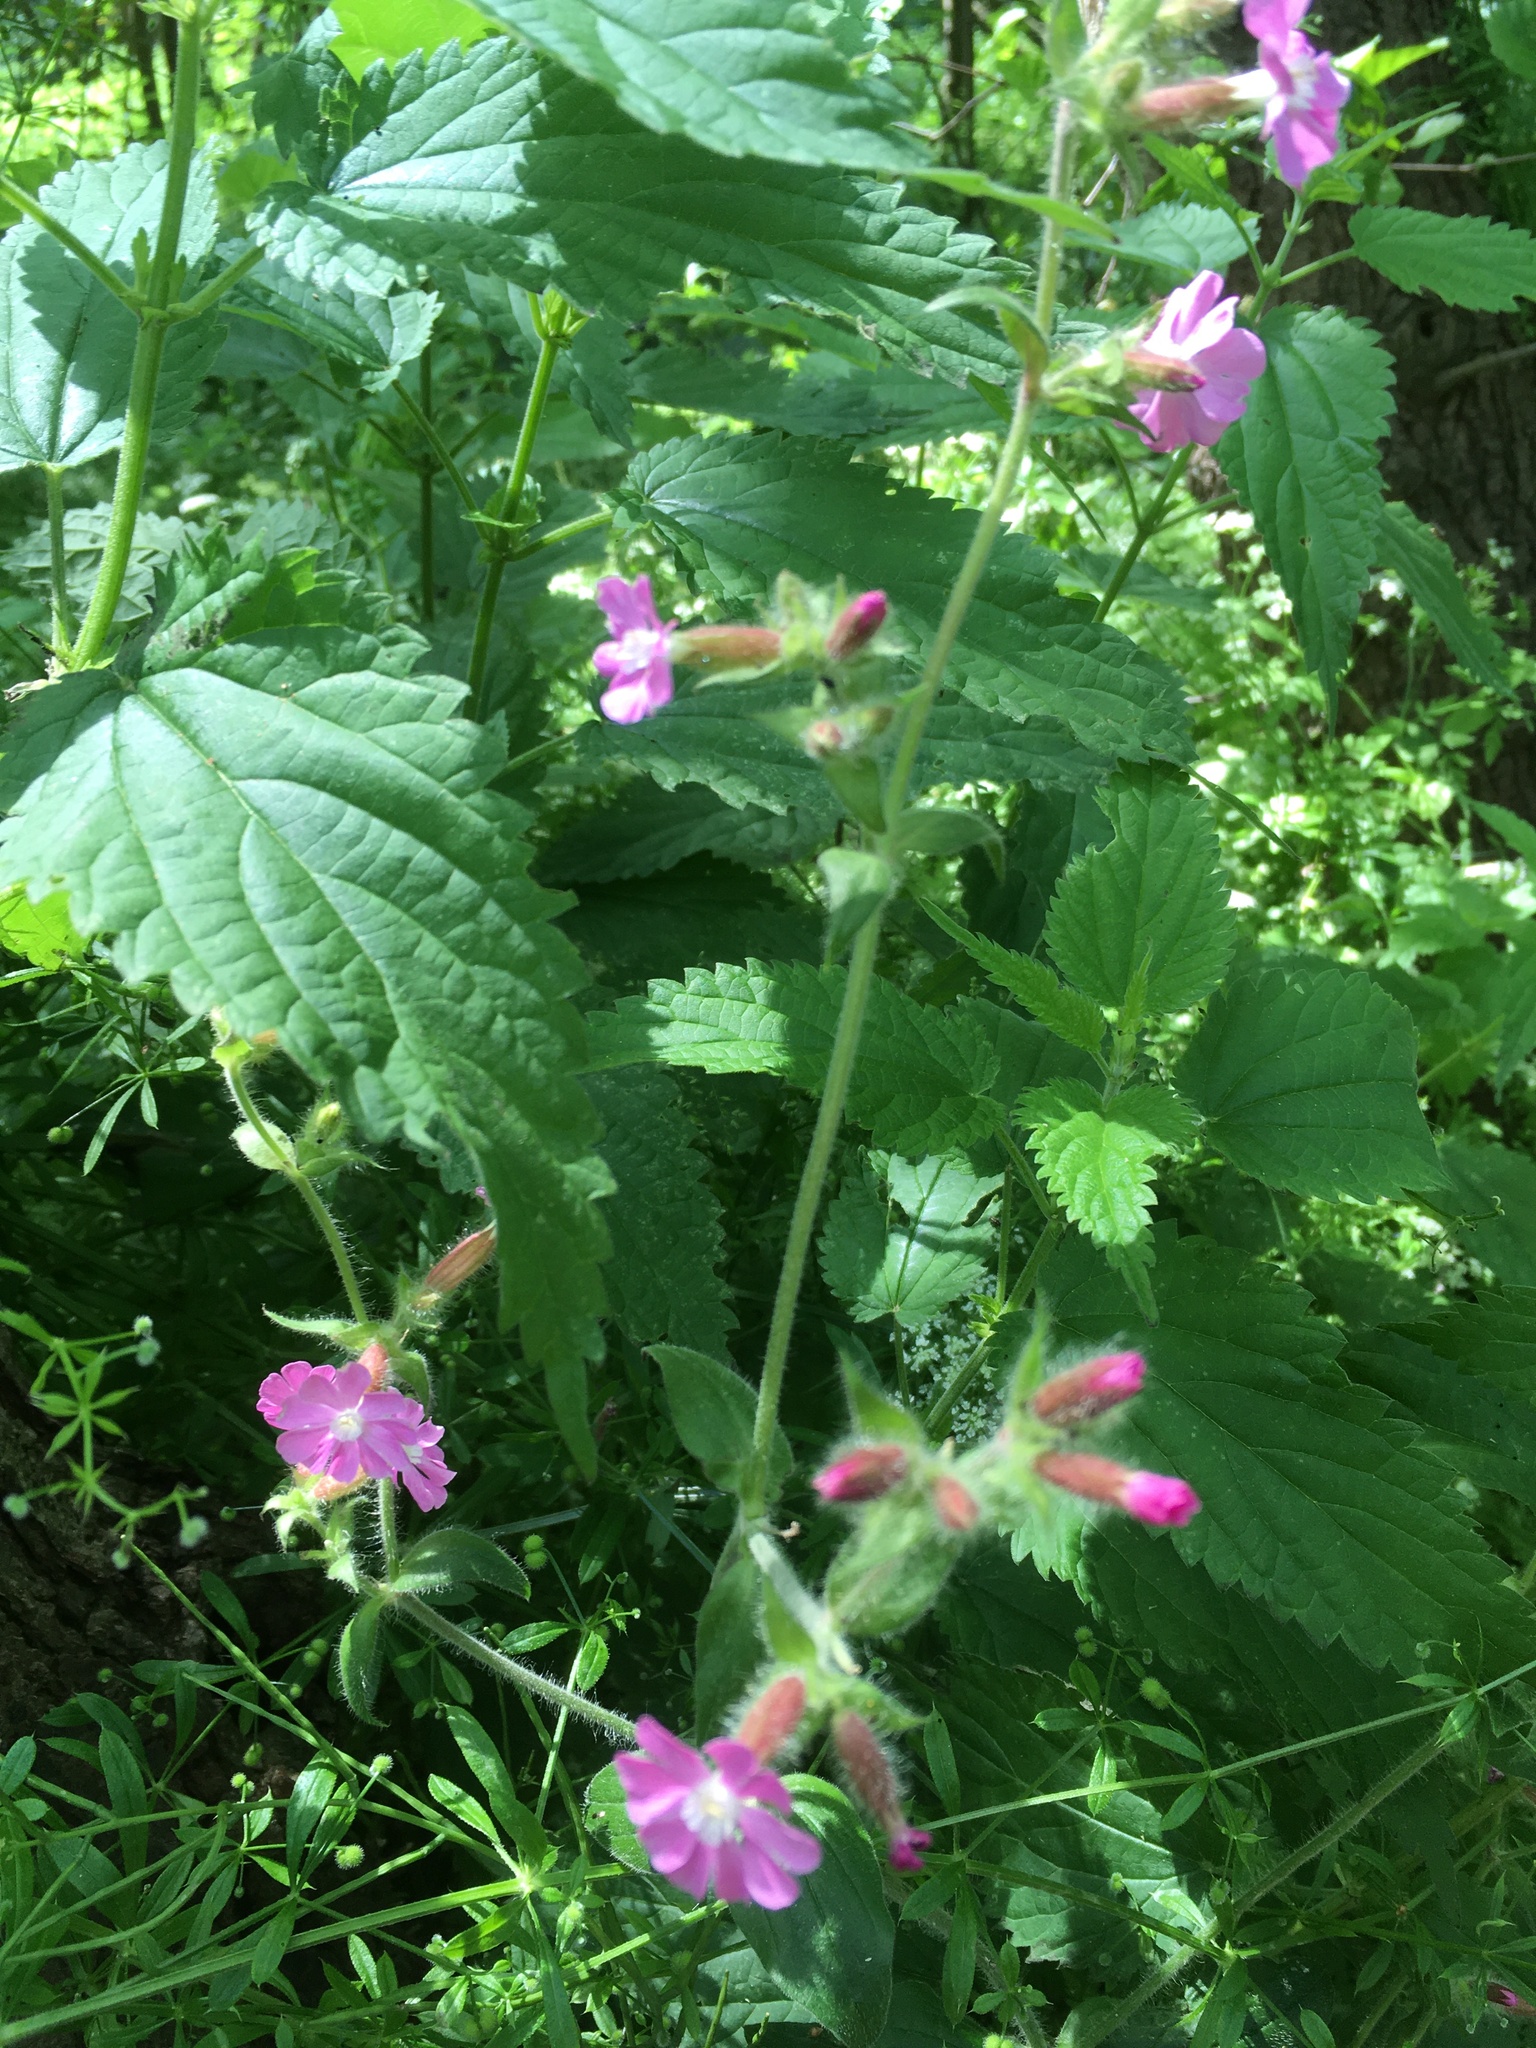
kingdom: Plantae
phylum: Tracheophyta
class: Magnoliopsida
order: Caryophyllales
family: Caryophyllaceae
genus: Silene
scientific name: Silene dioica
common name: Red campion
